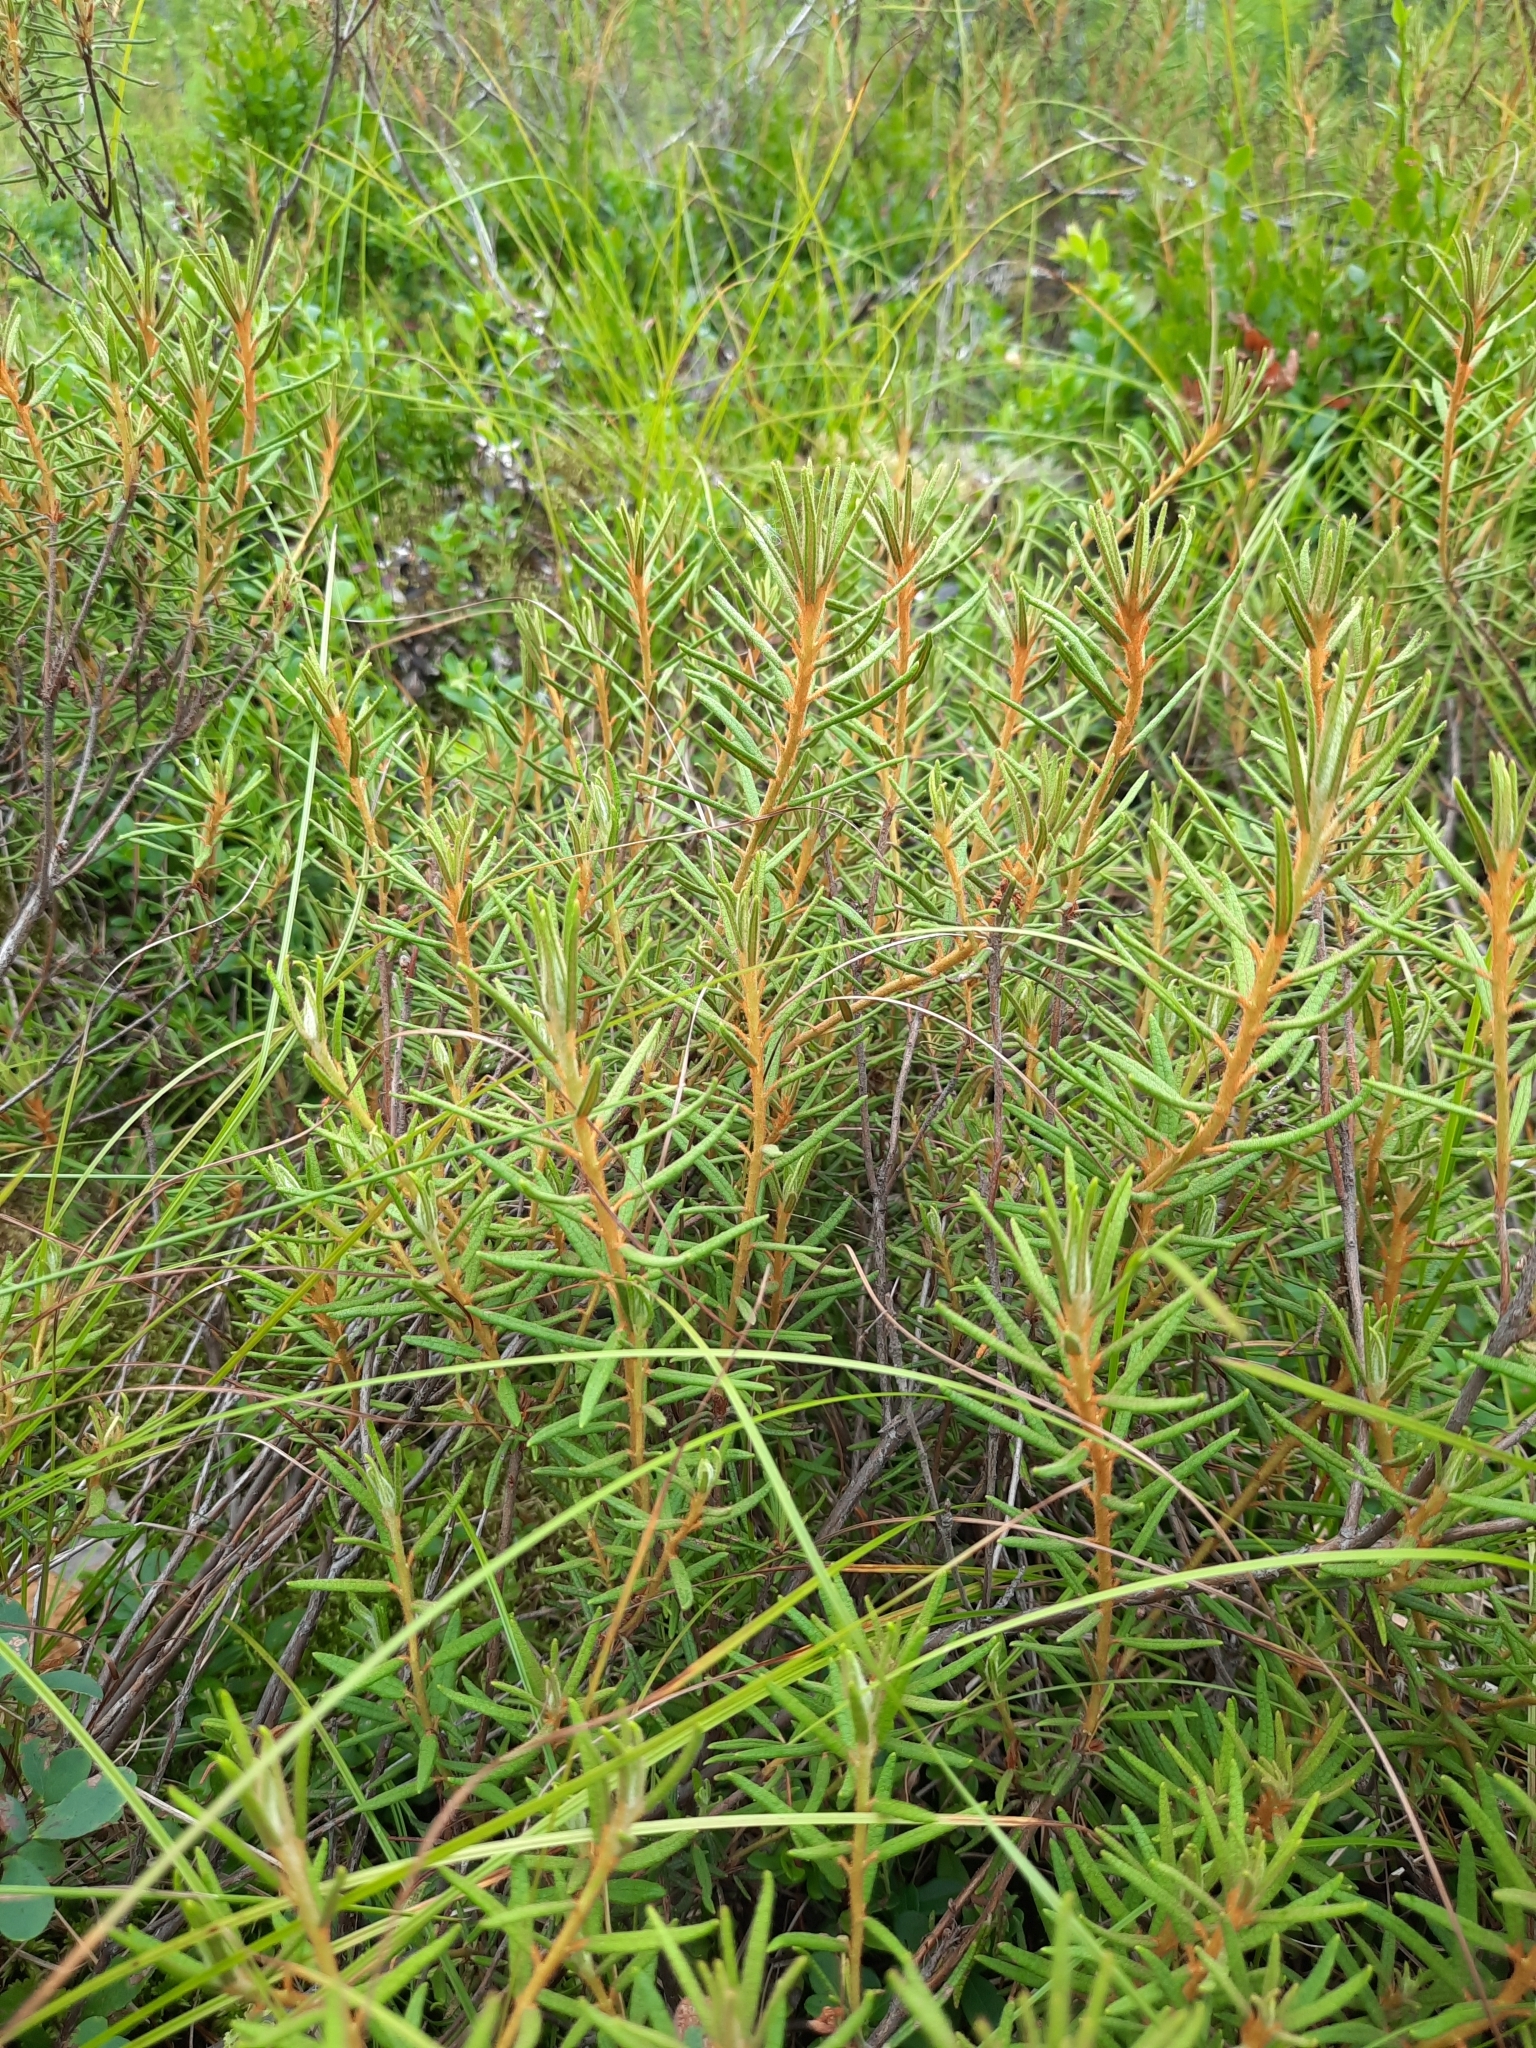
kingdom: Plantae
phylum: Tracheophyta
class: Magnoliopsida
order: Ericales
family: Ericaceae
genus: Rhododendron
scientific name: Rhododendron tomentosum
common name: Marsh labrador tea
